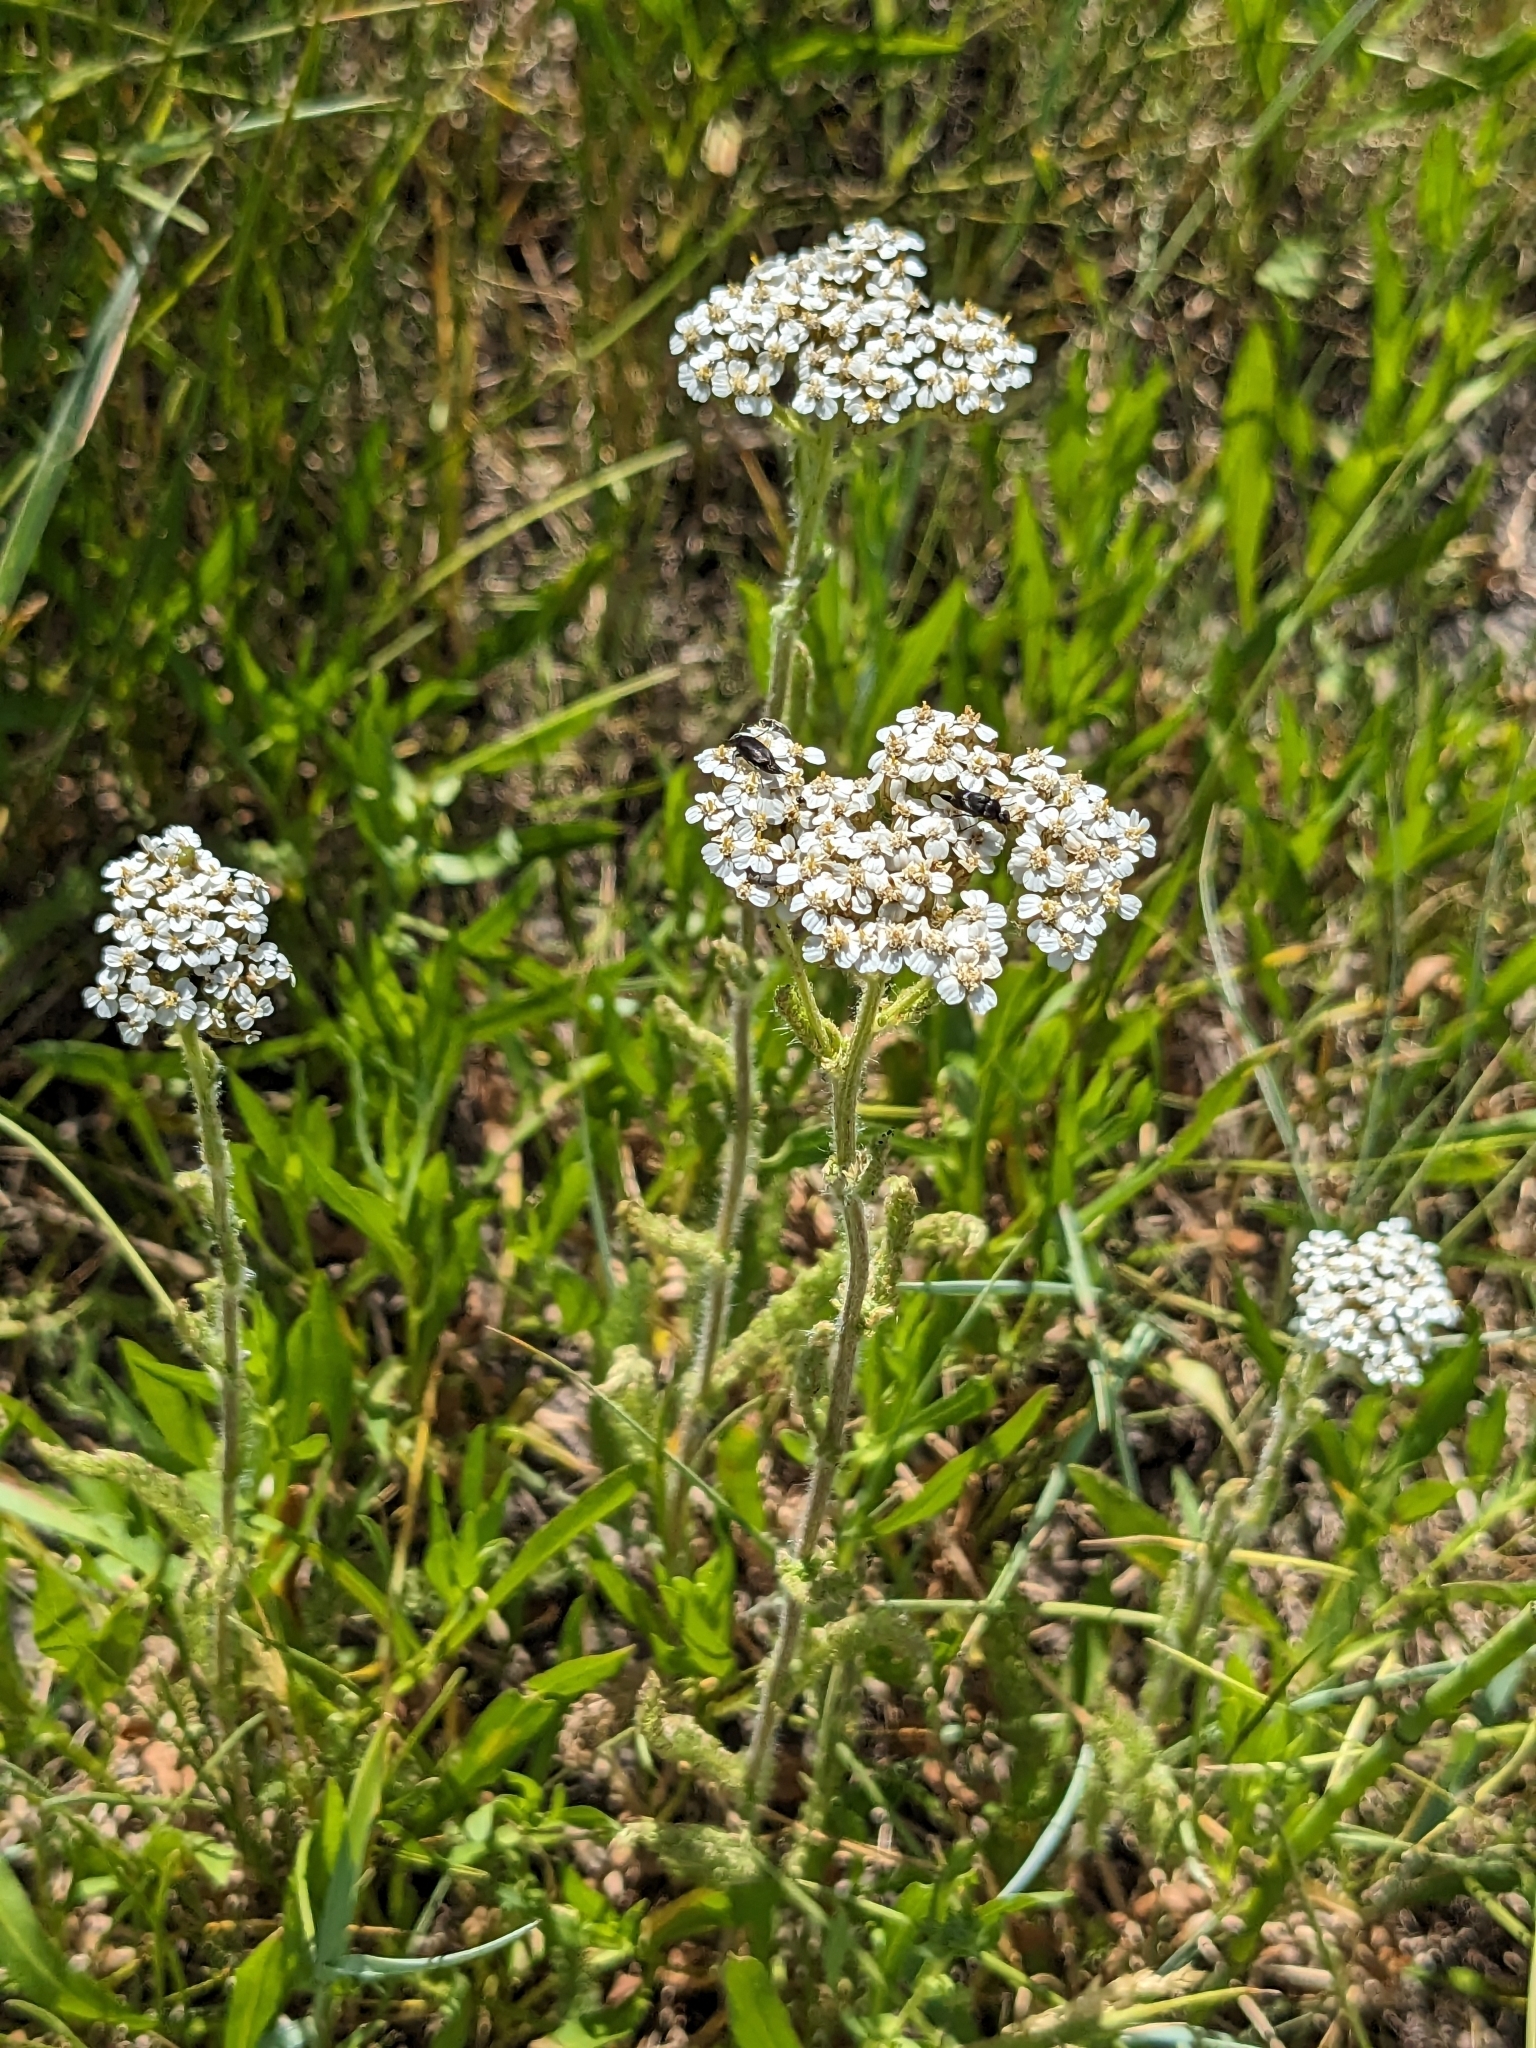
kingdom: Plantae
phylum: Tracheophyta
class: Magnoliopsida
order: Asterales
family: Asteraceae
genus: Achillea
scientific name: Achillea millefolium
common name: Yarrow
